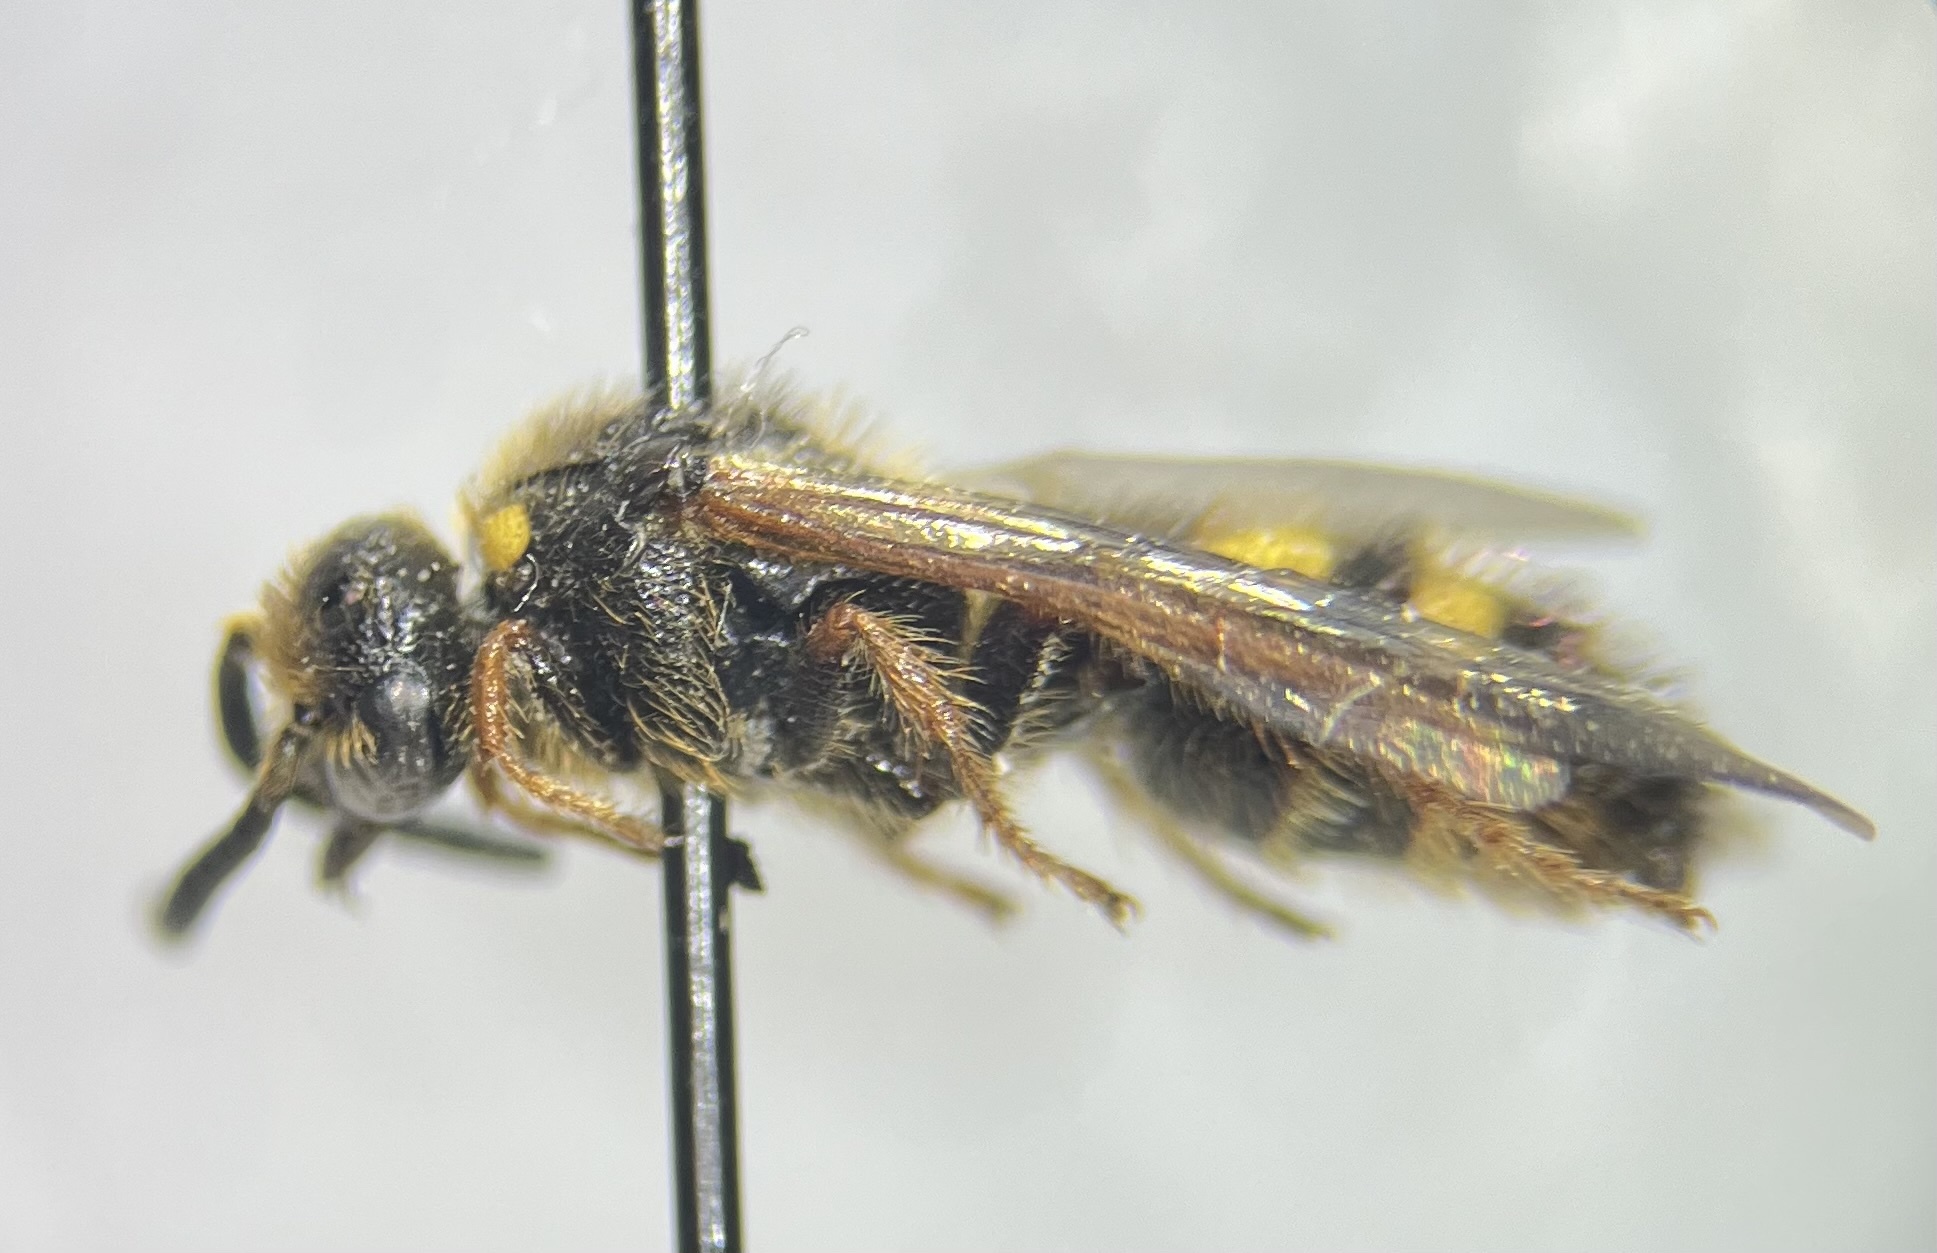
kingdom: Animalia
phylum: Arthropoda
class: Insecta
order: Hymenoptera
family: Scoliidae
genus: Scolia
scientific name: Scolia nobilitata
